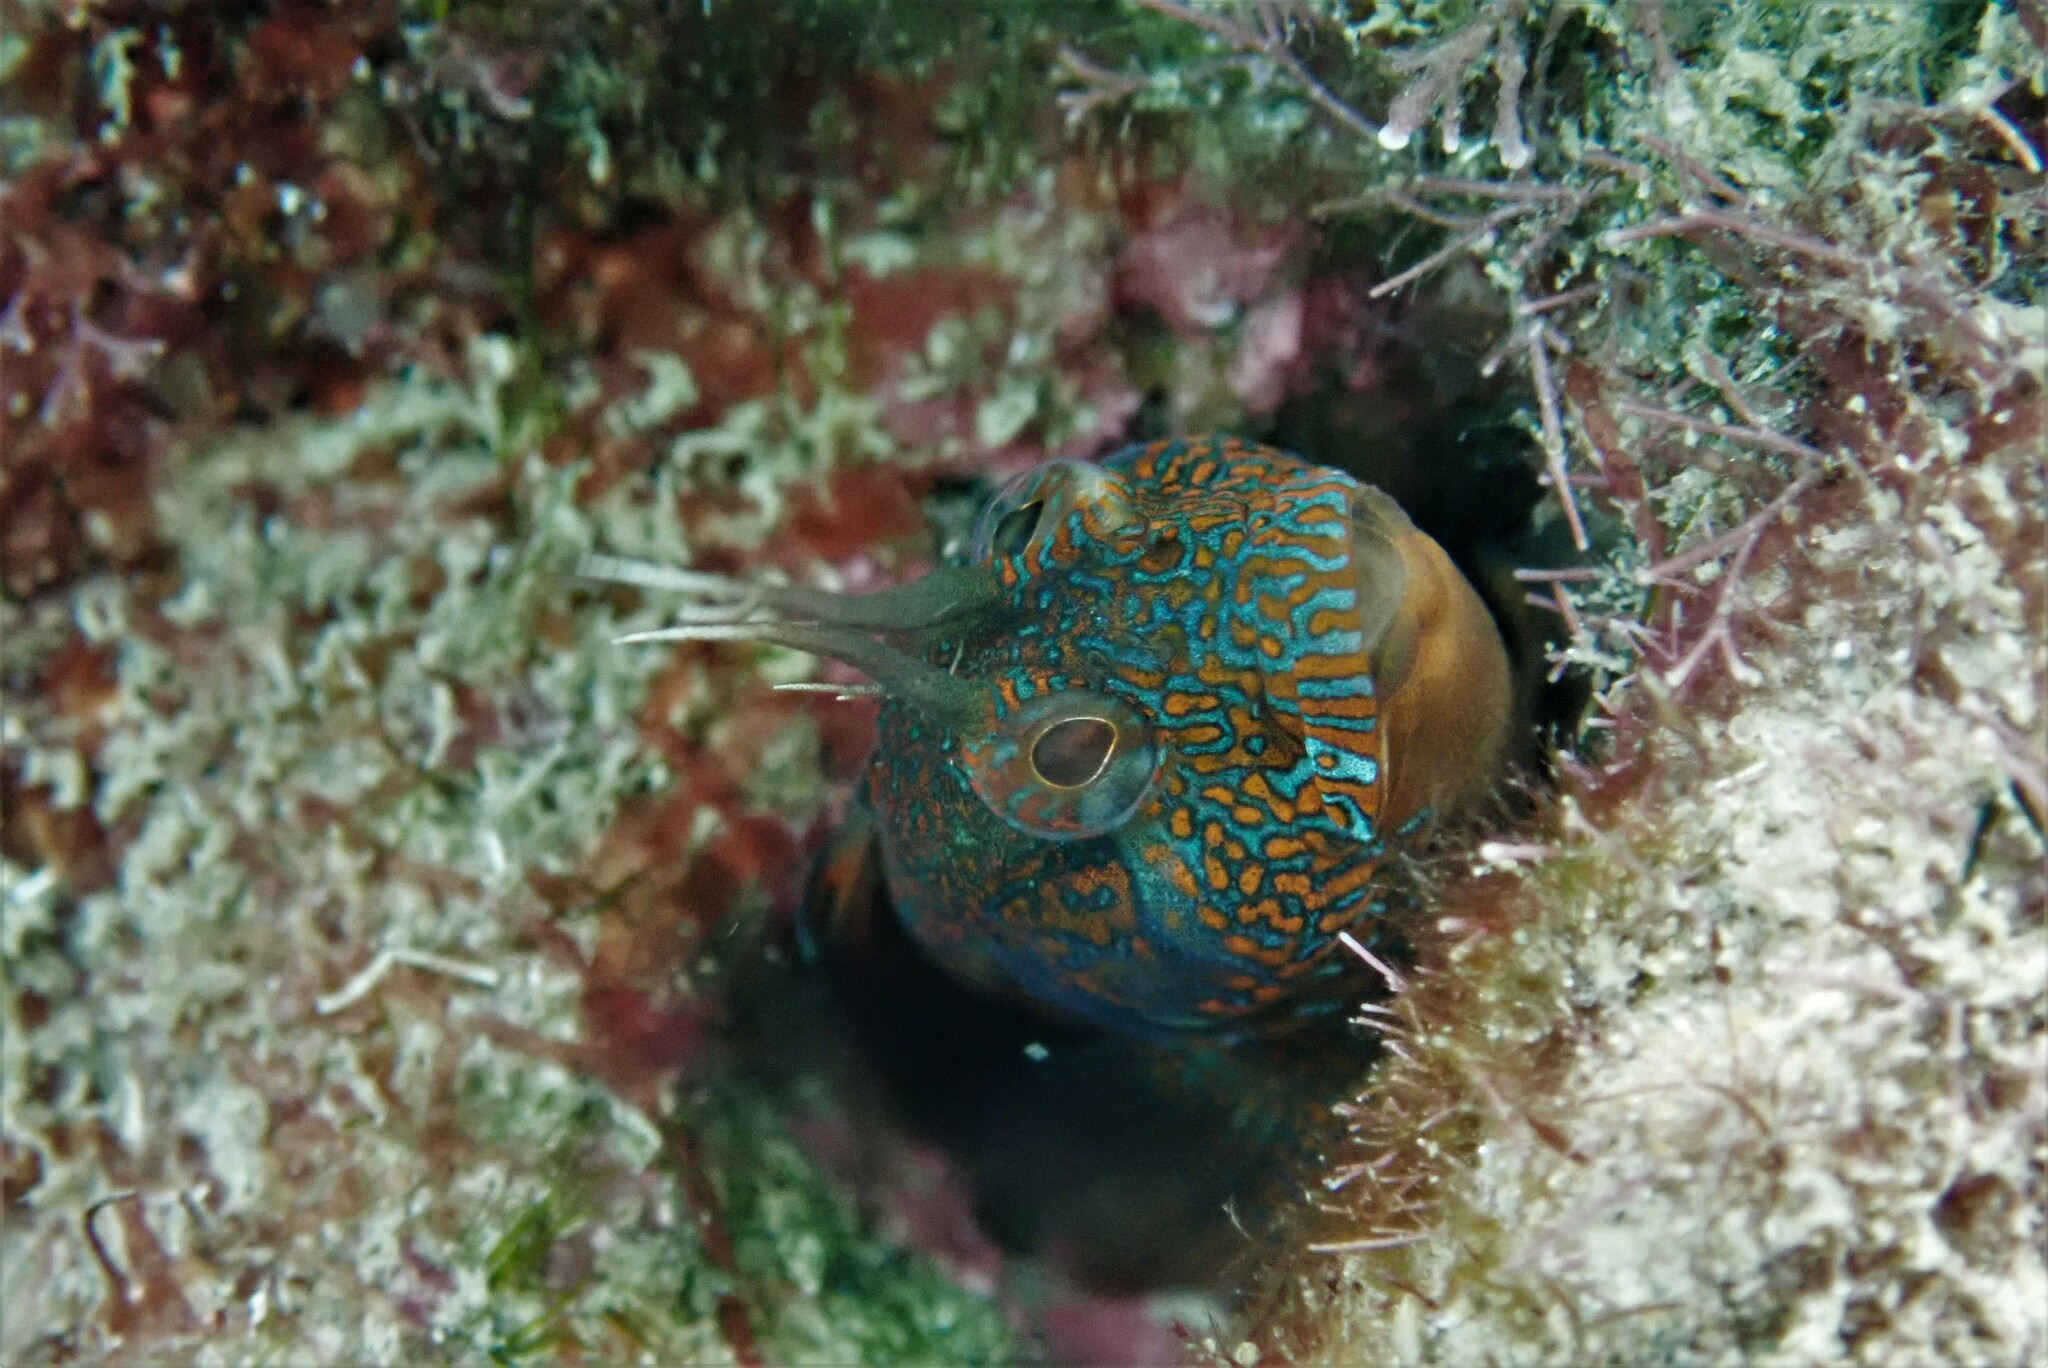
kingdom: Animalia
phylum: Chordata
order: Perciformes
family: Blenniidae
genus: Parablennius
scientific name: Parablennius incognitus
